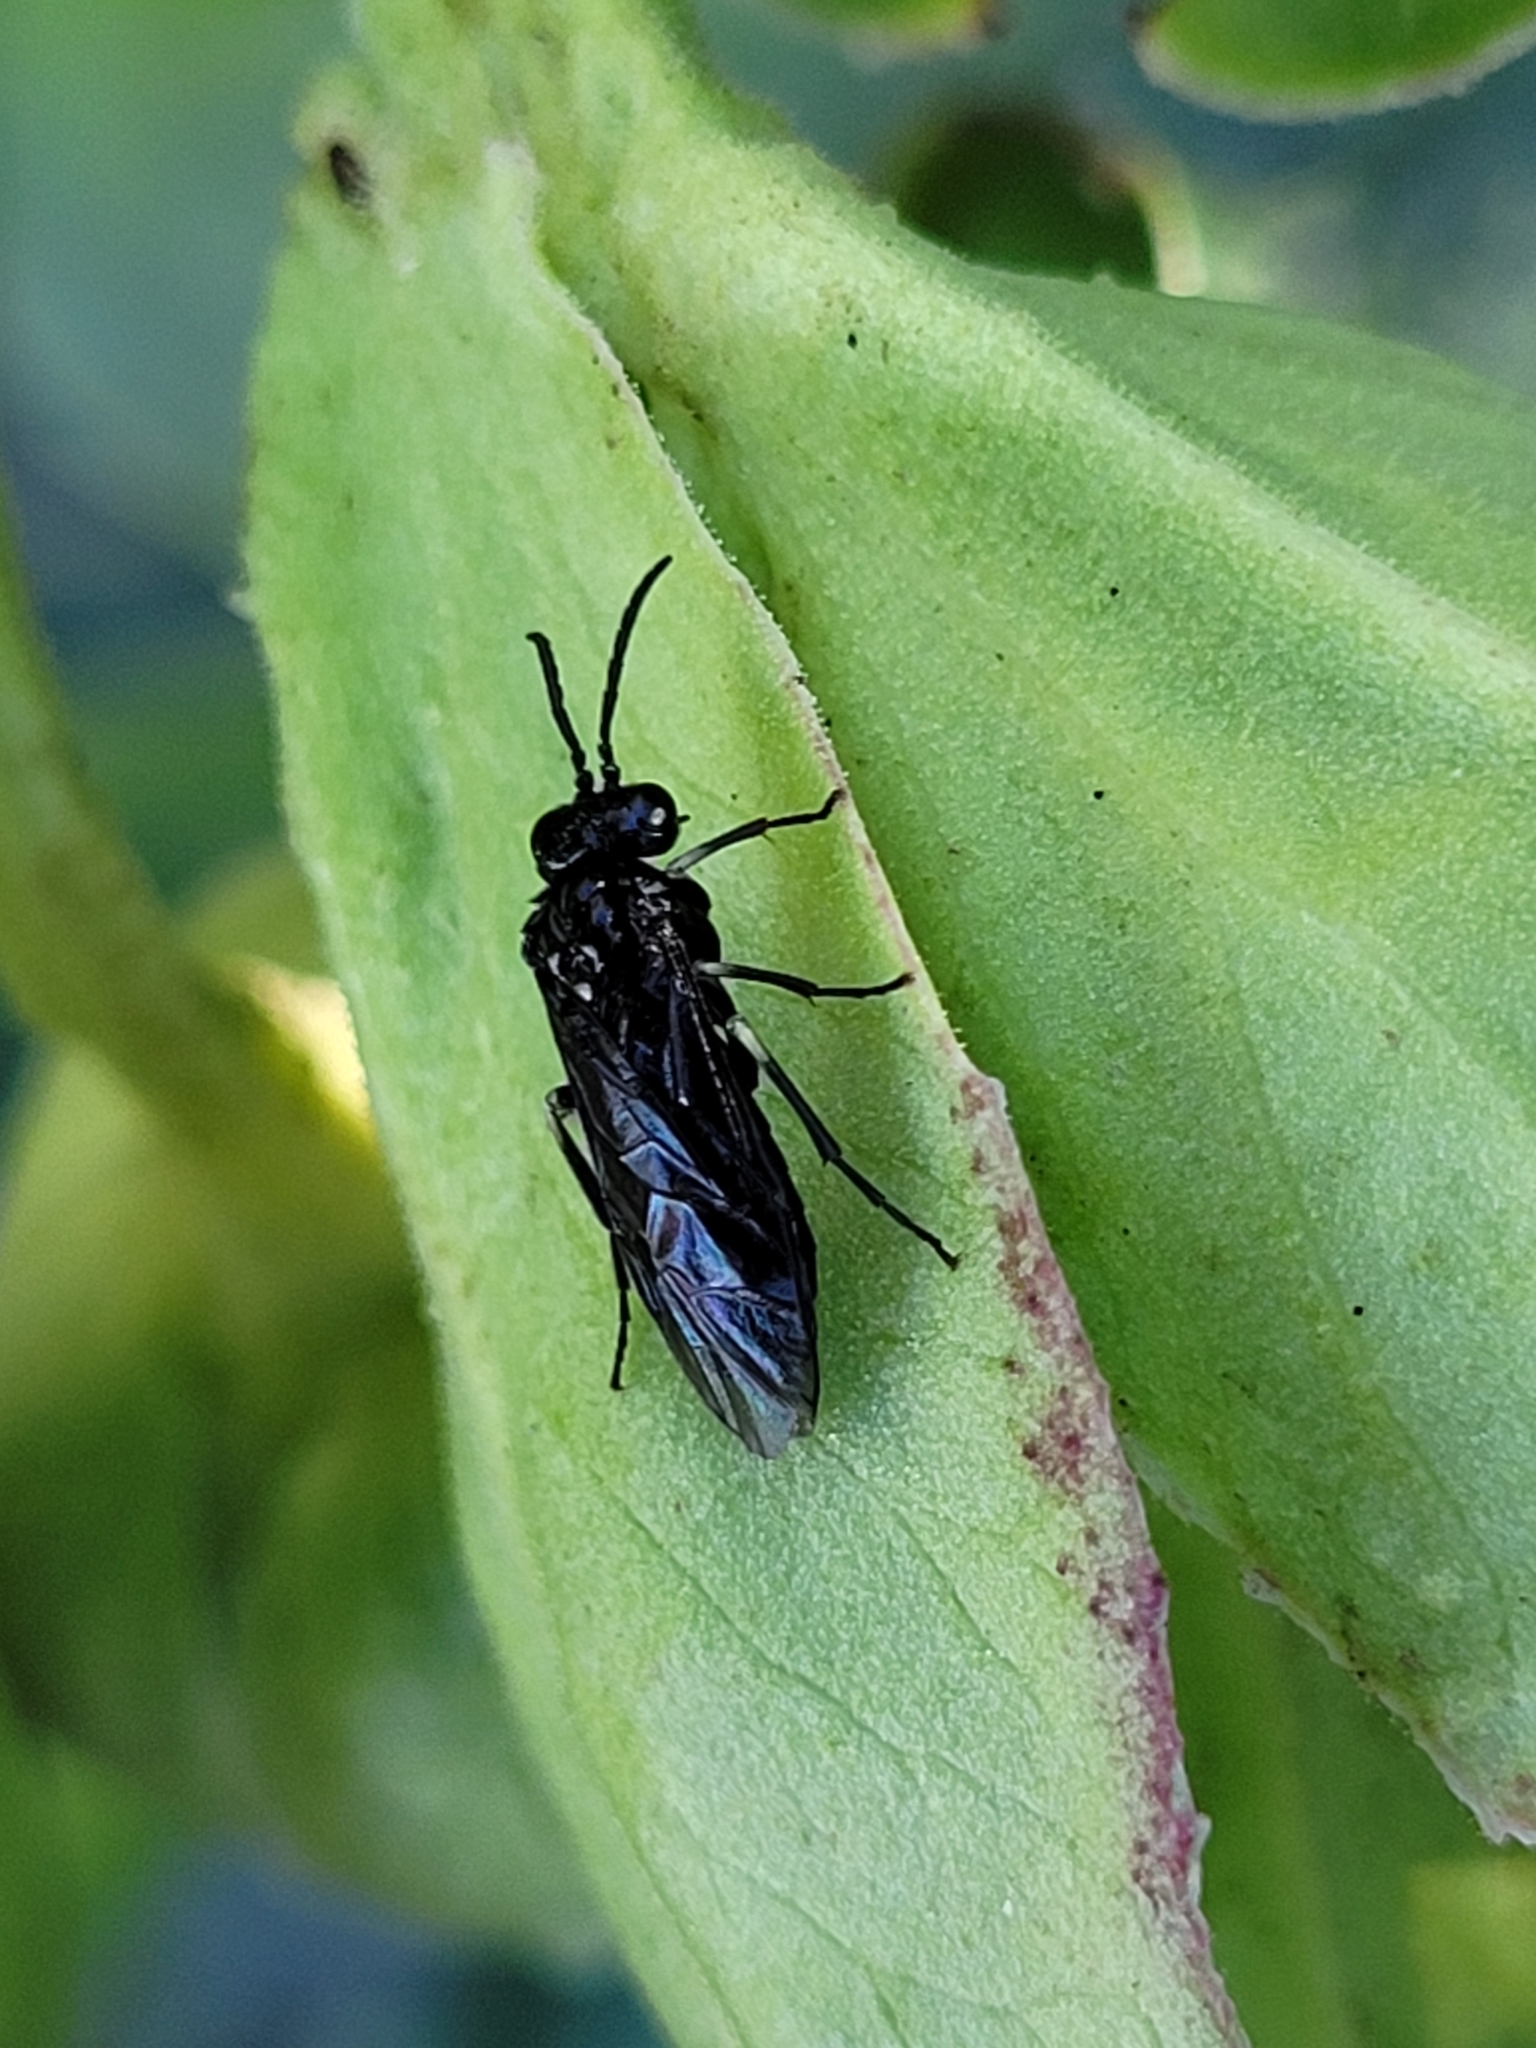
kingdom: Animalia
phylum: Arthropoda
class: Insecta
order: Hymenoptera
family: Tenthredinidae
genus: Monophadnus
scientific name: Monophadnus taegeri
